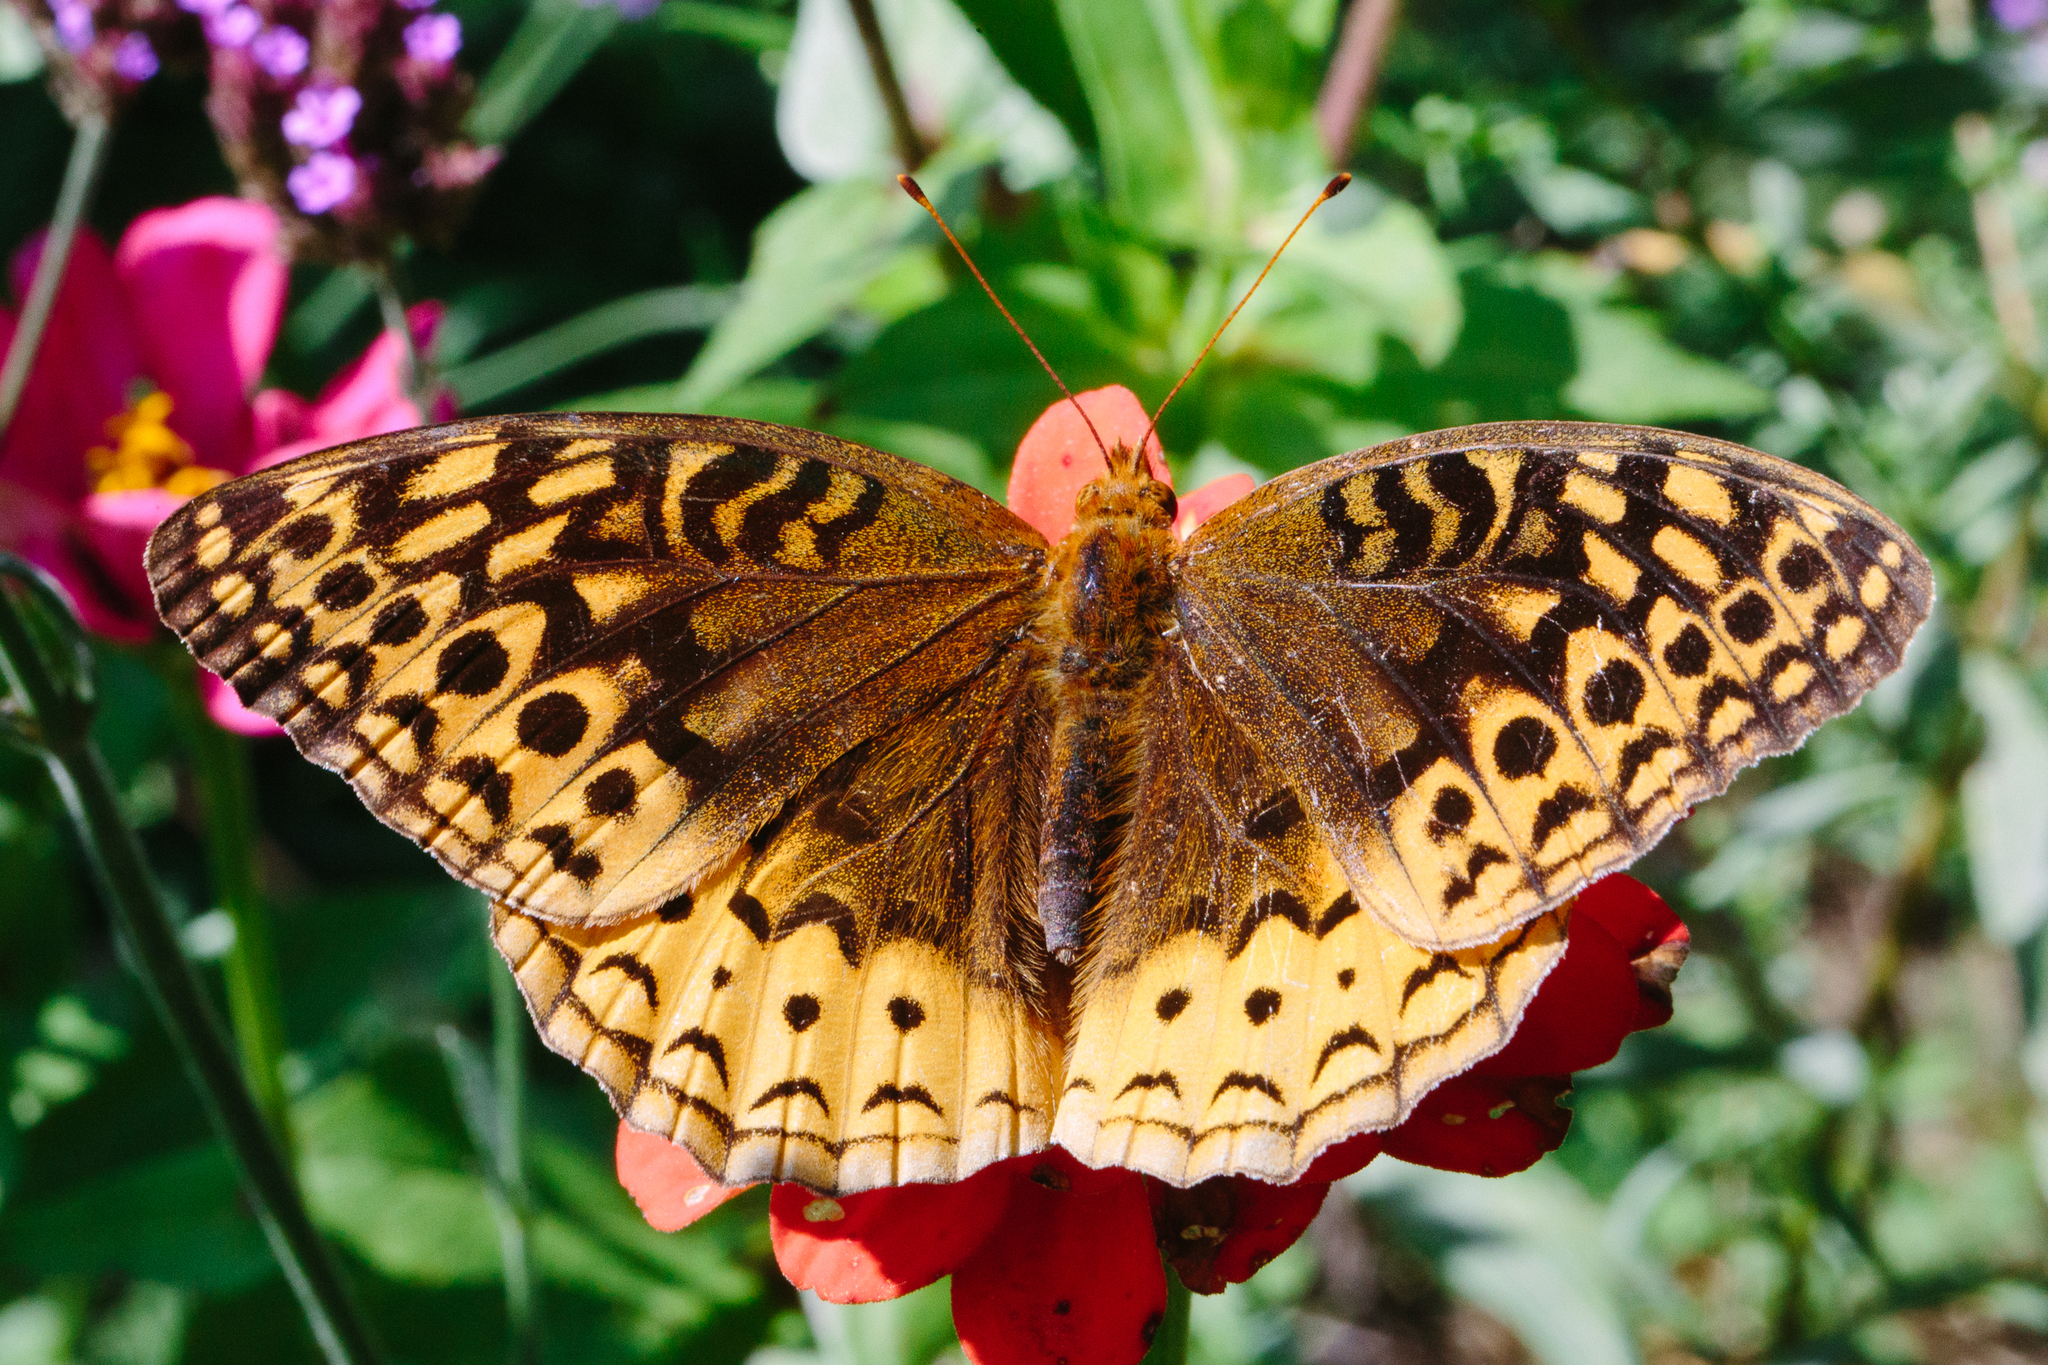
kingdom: Animalia
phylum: Arthropoda
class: Insecta
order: Lepidoptera
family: Nymphalidae
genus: Speyeria
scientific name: Speyeria cybele
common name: Great spangled fritillary
